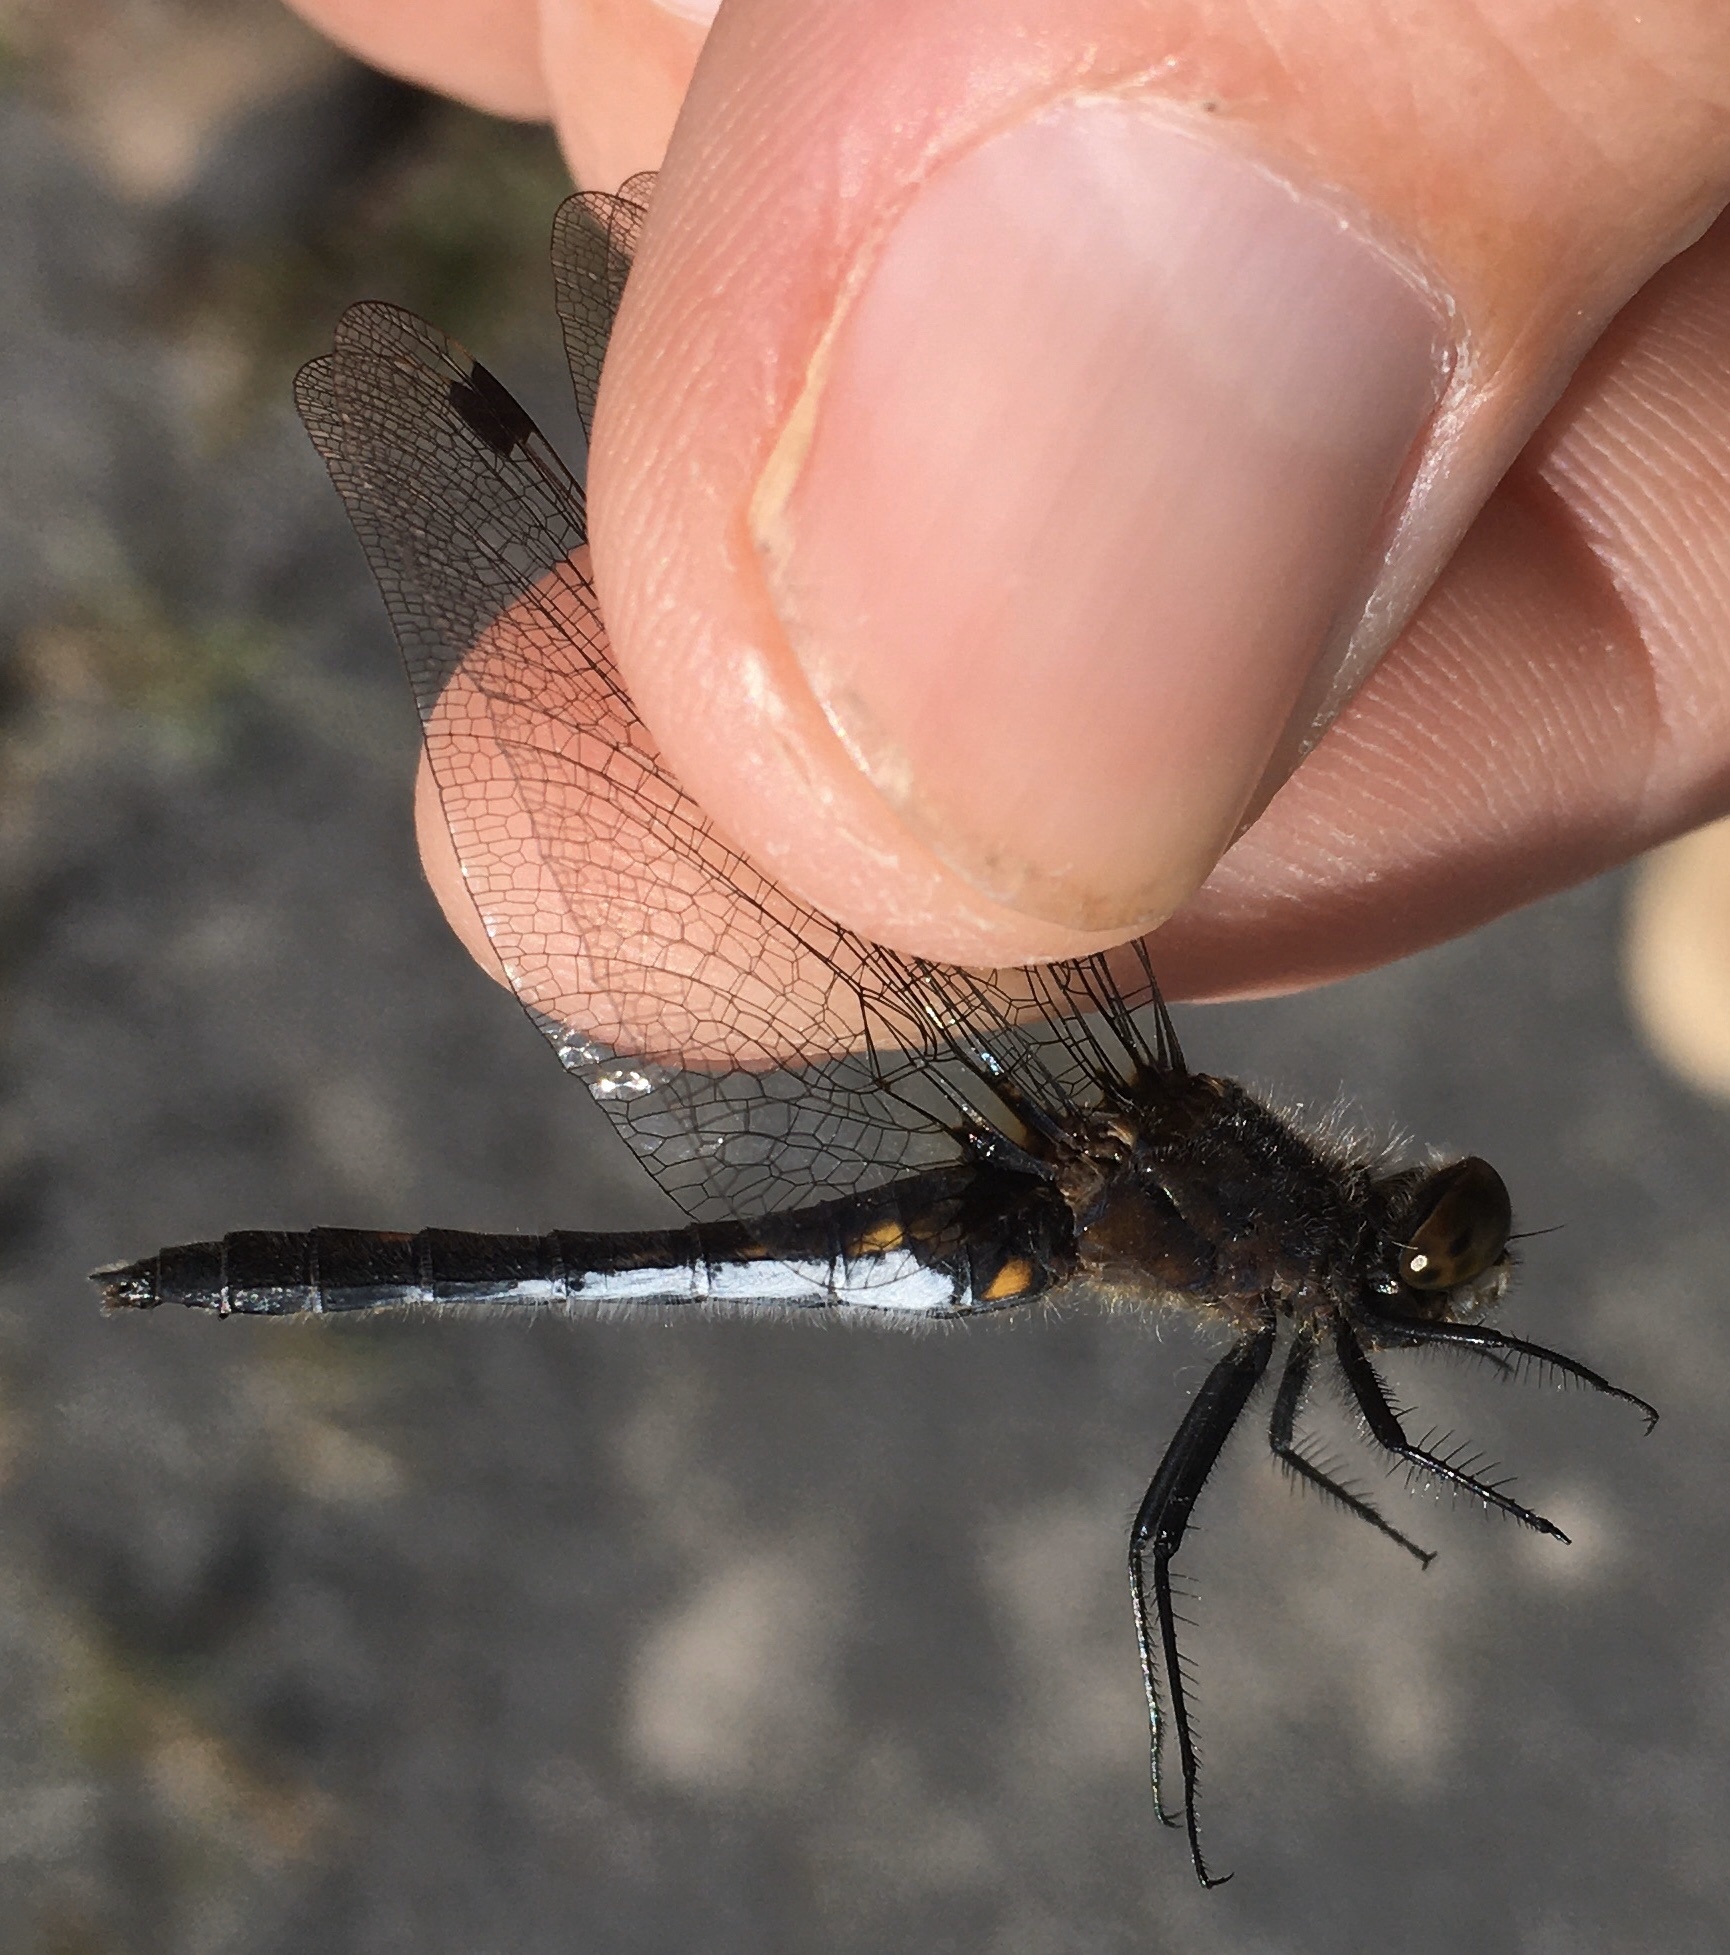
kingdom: Animalia
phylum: Arthropoda
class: Insecta
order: Odonata
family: Libellulidae
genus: Leucorrhinia
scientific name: Leucorrhinia intacta
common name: Dot-tailed whiteface
